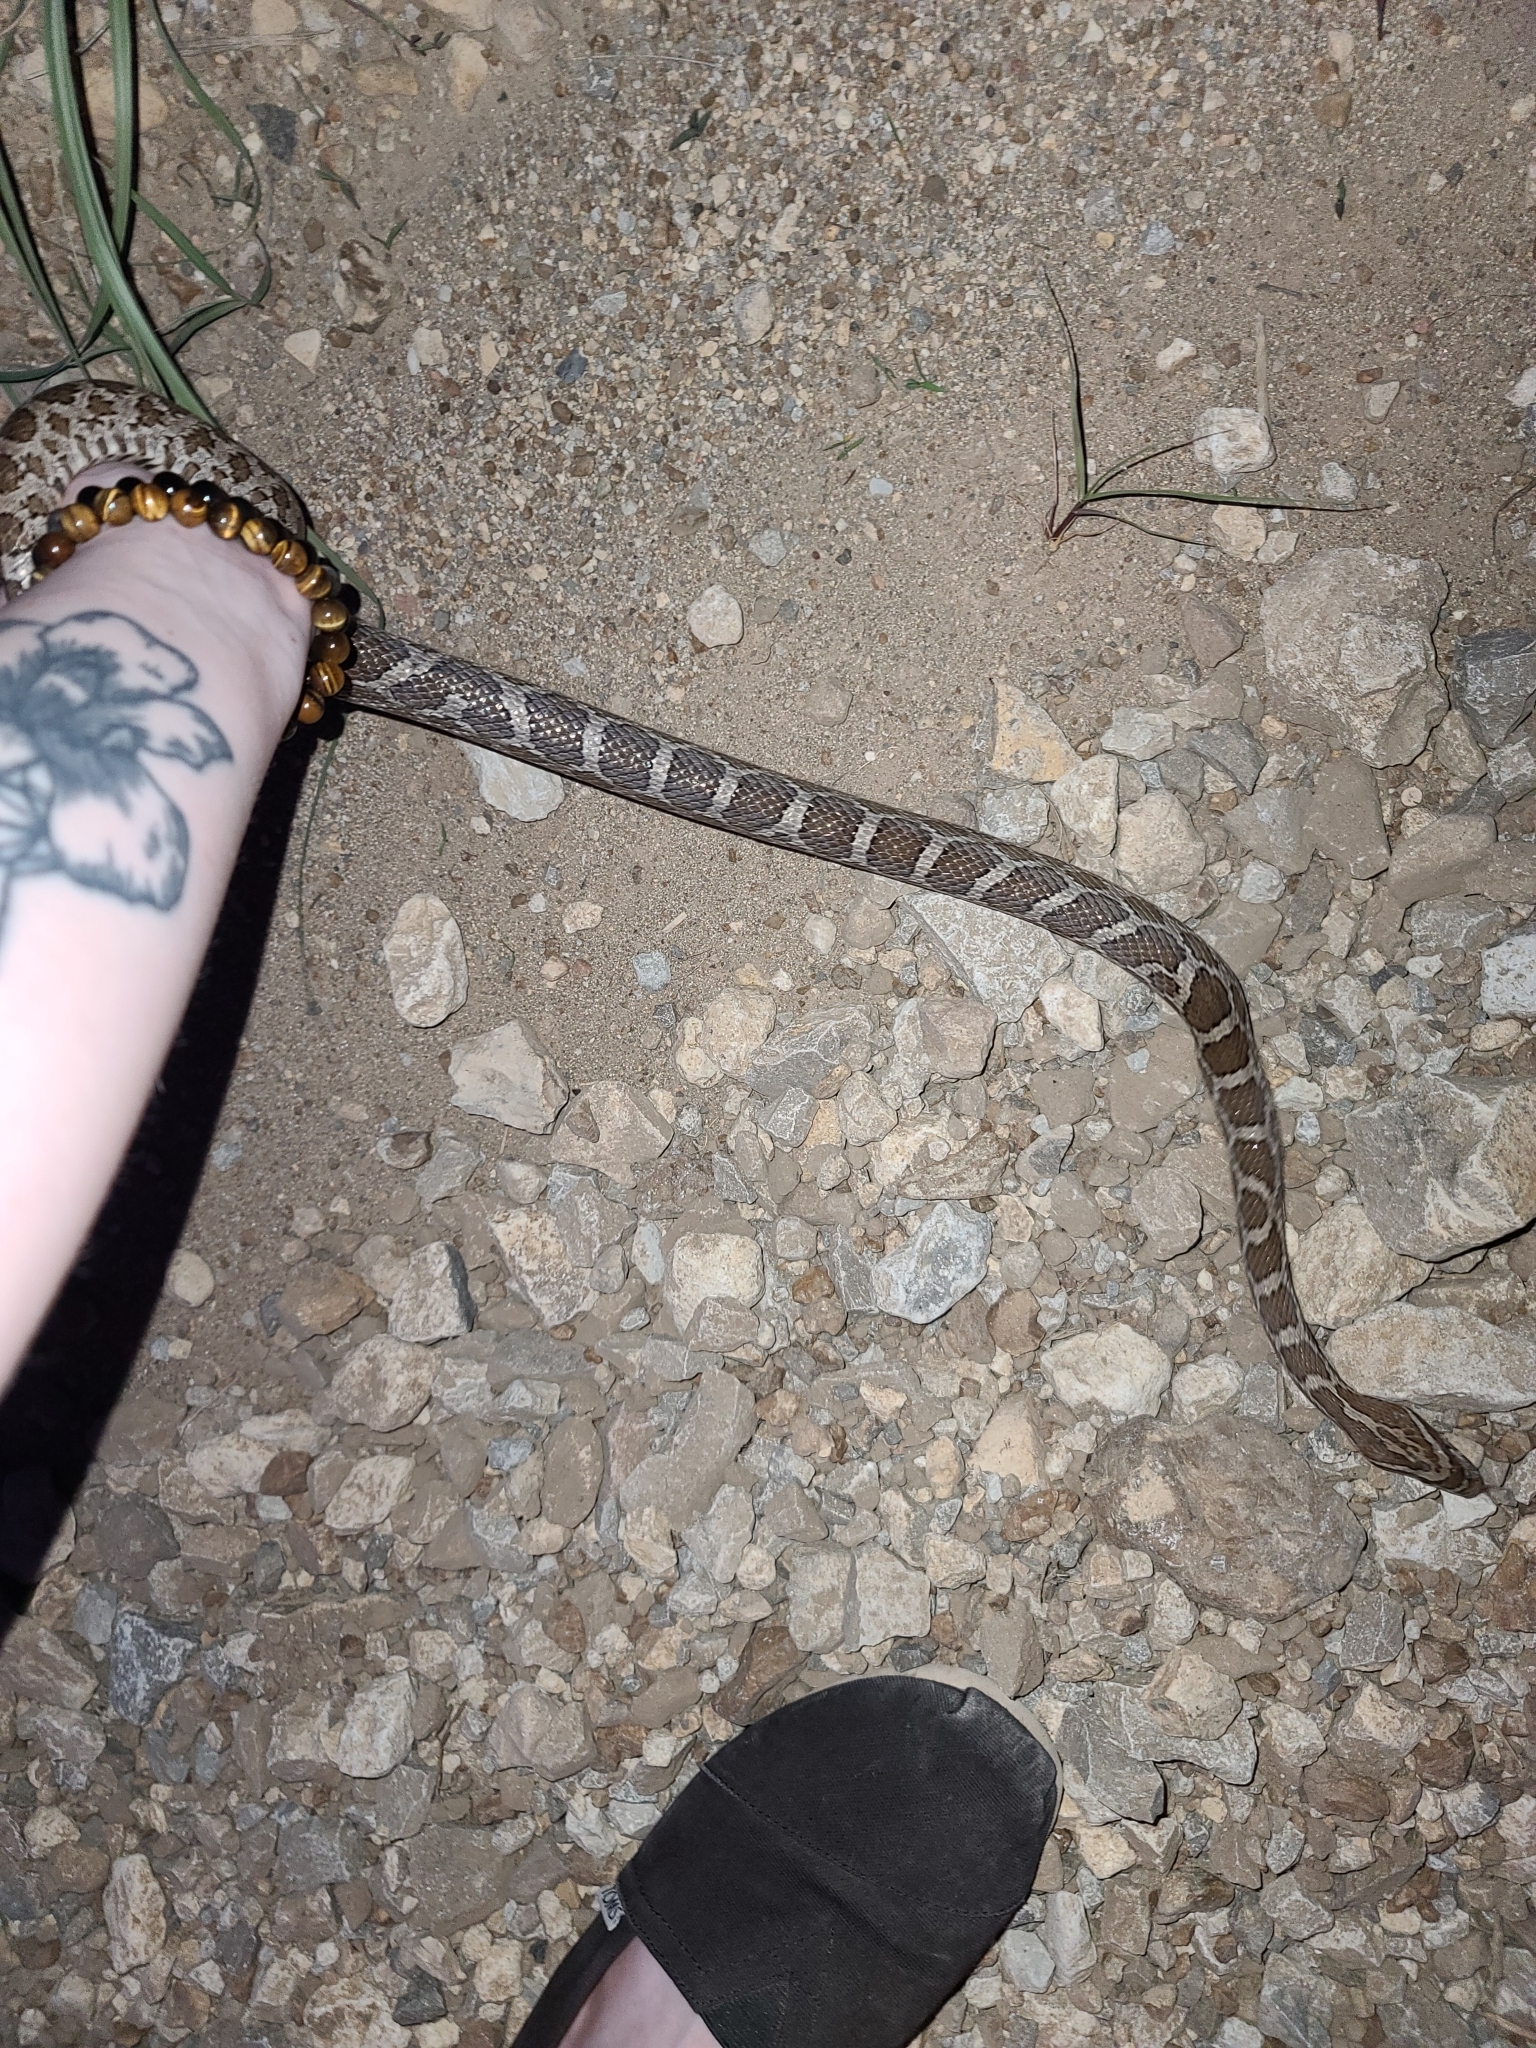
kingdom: Animalia
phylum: Chordata
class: Squamata
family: Colubridae
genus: Pantherophis
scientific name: Pantherophis emoryi
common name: Great plains rat snake
